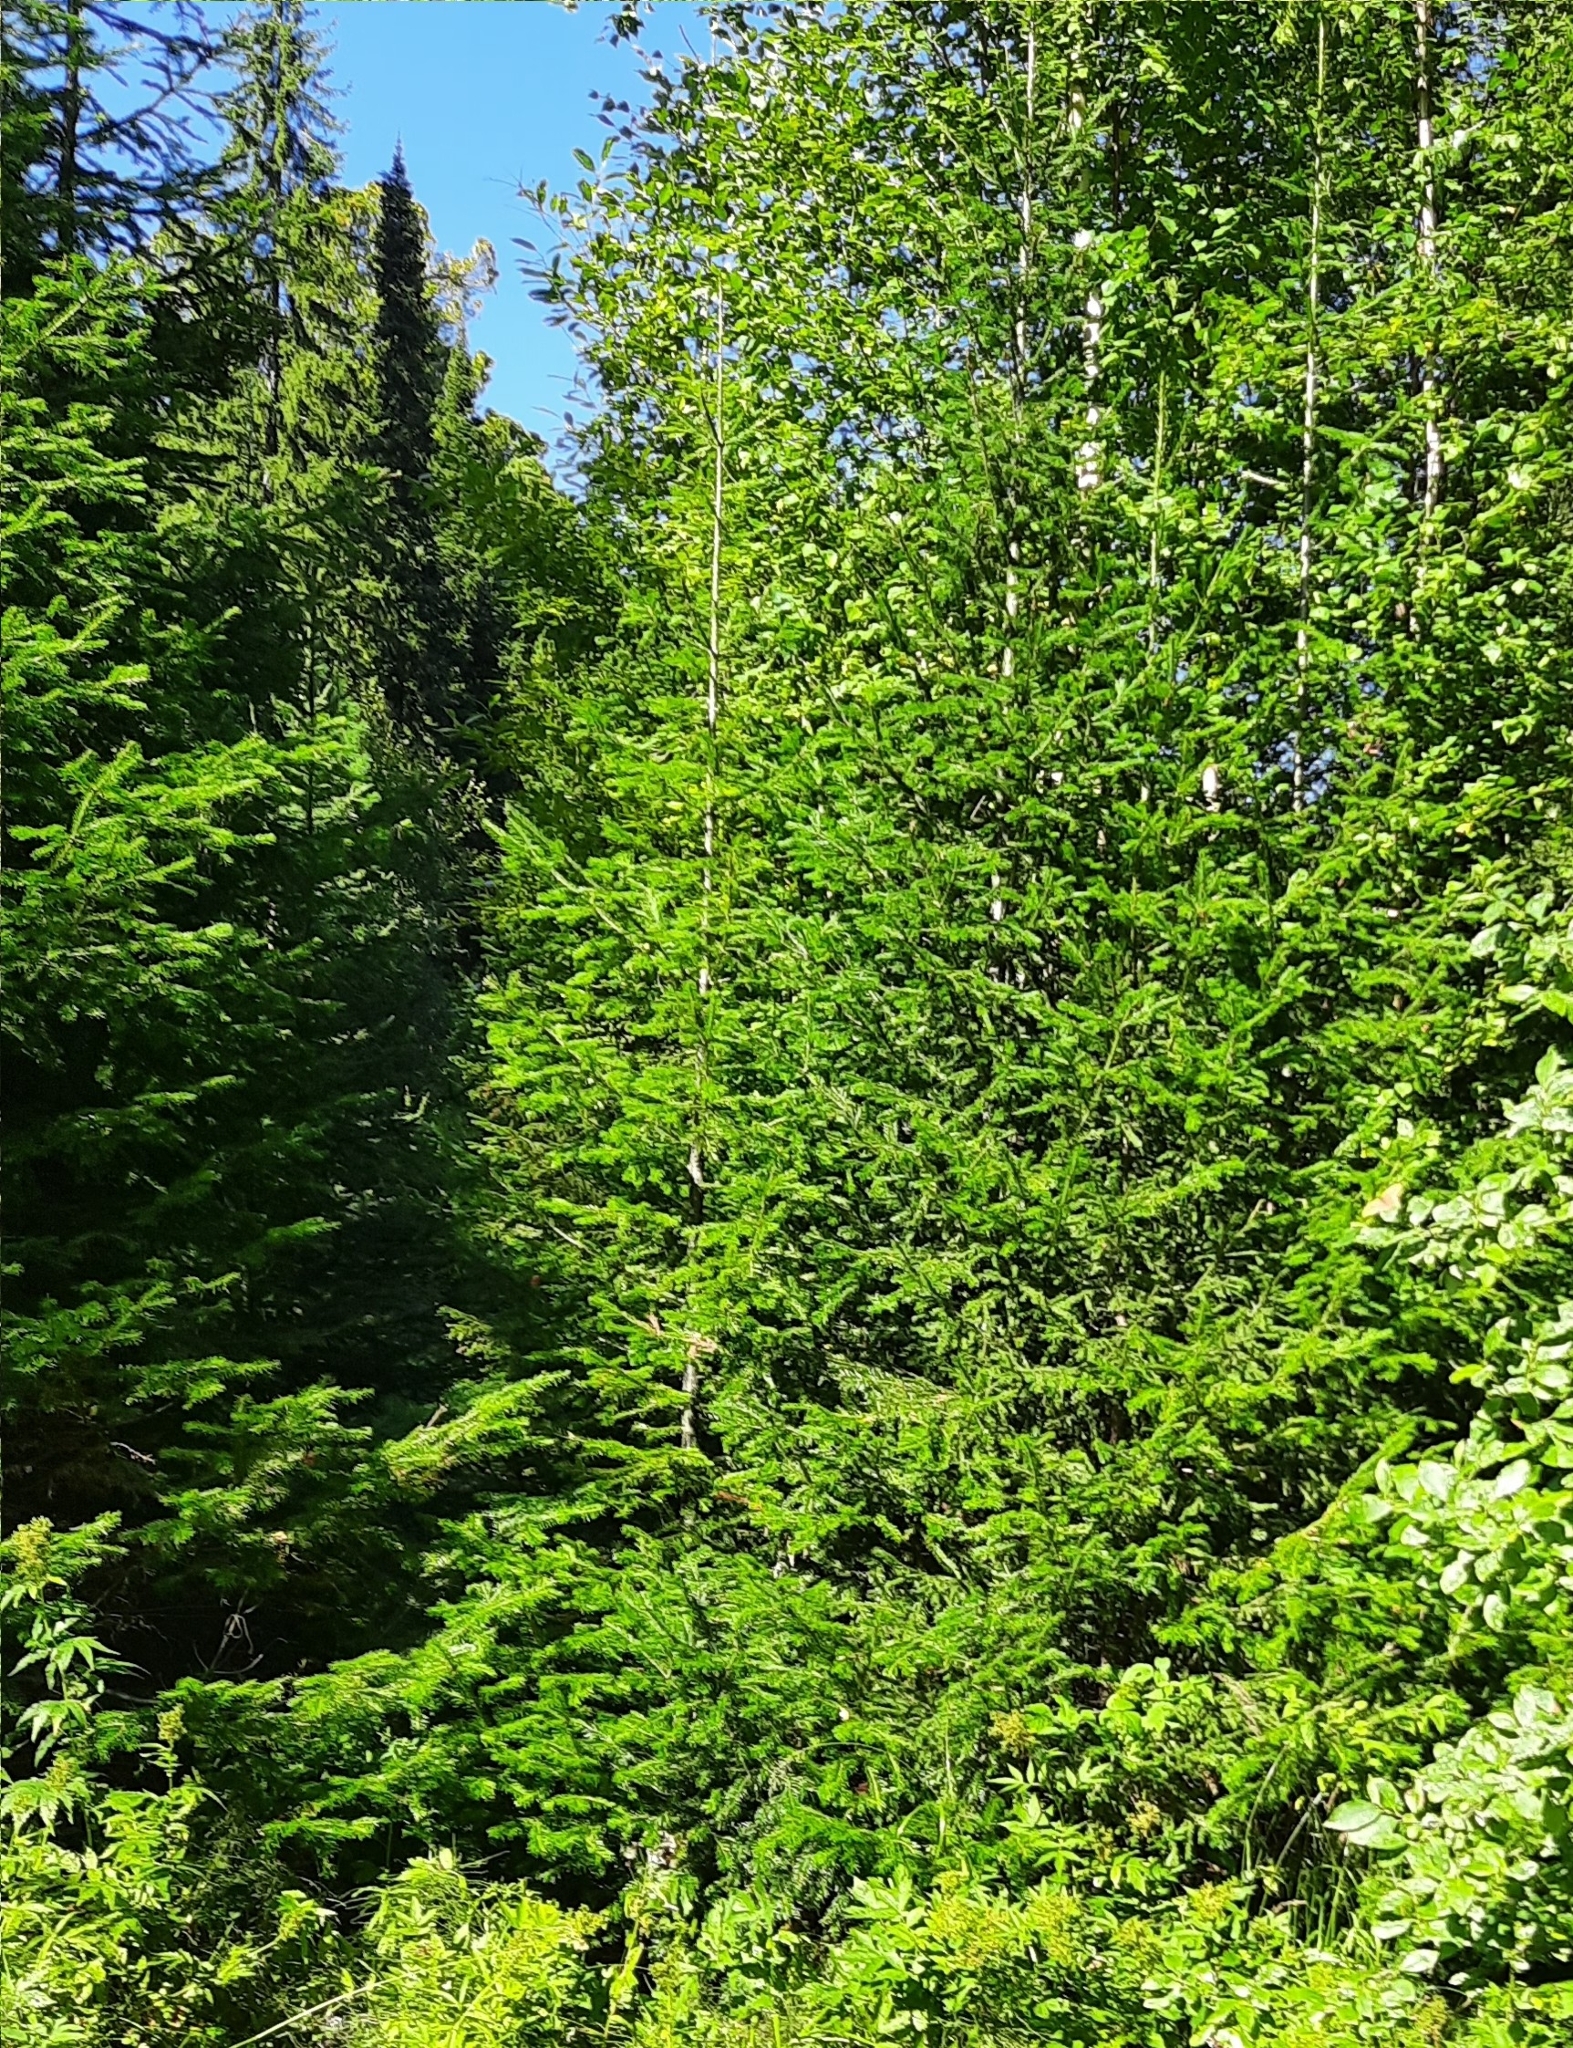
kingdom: Plantae
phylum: Tracheophyta
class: Pinopsida
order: Pinales
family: Pinaceae
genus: Abies
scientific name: Abies sibirica
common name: Siberian fir
